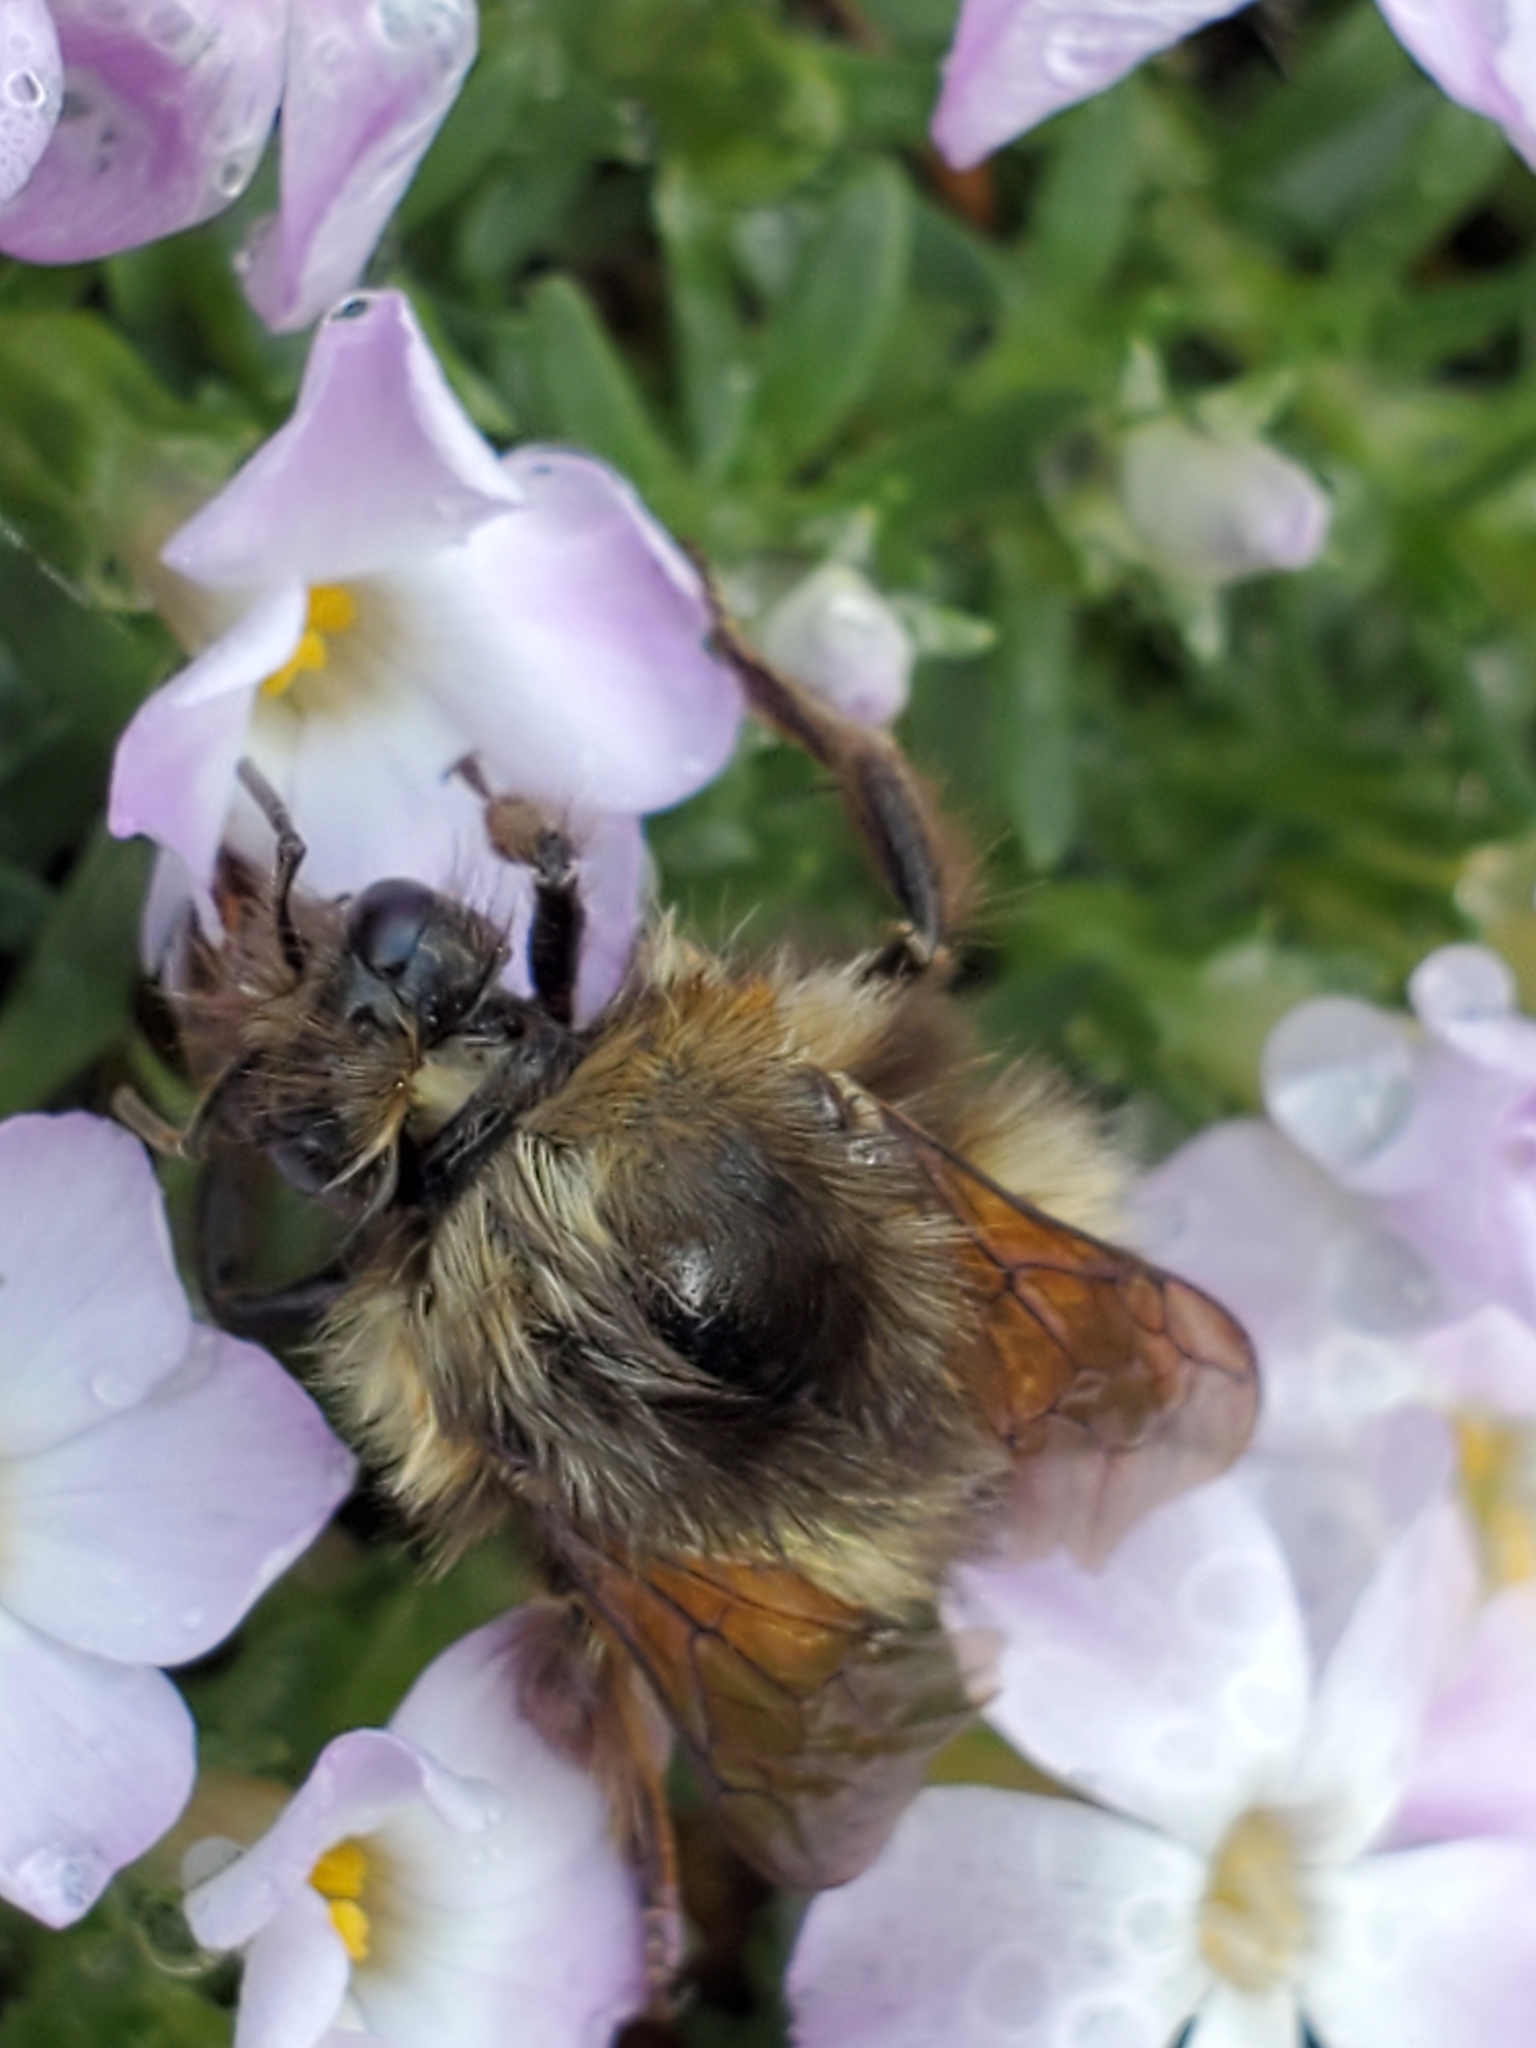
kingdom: Animalia
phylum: Arthropoda
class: Insecta
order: Hymenoptera
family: Apidae
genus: Bombus
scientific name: Bombus sitkensis
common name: Sitka bumble bee
